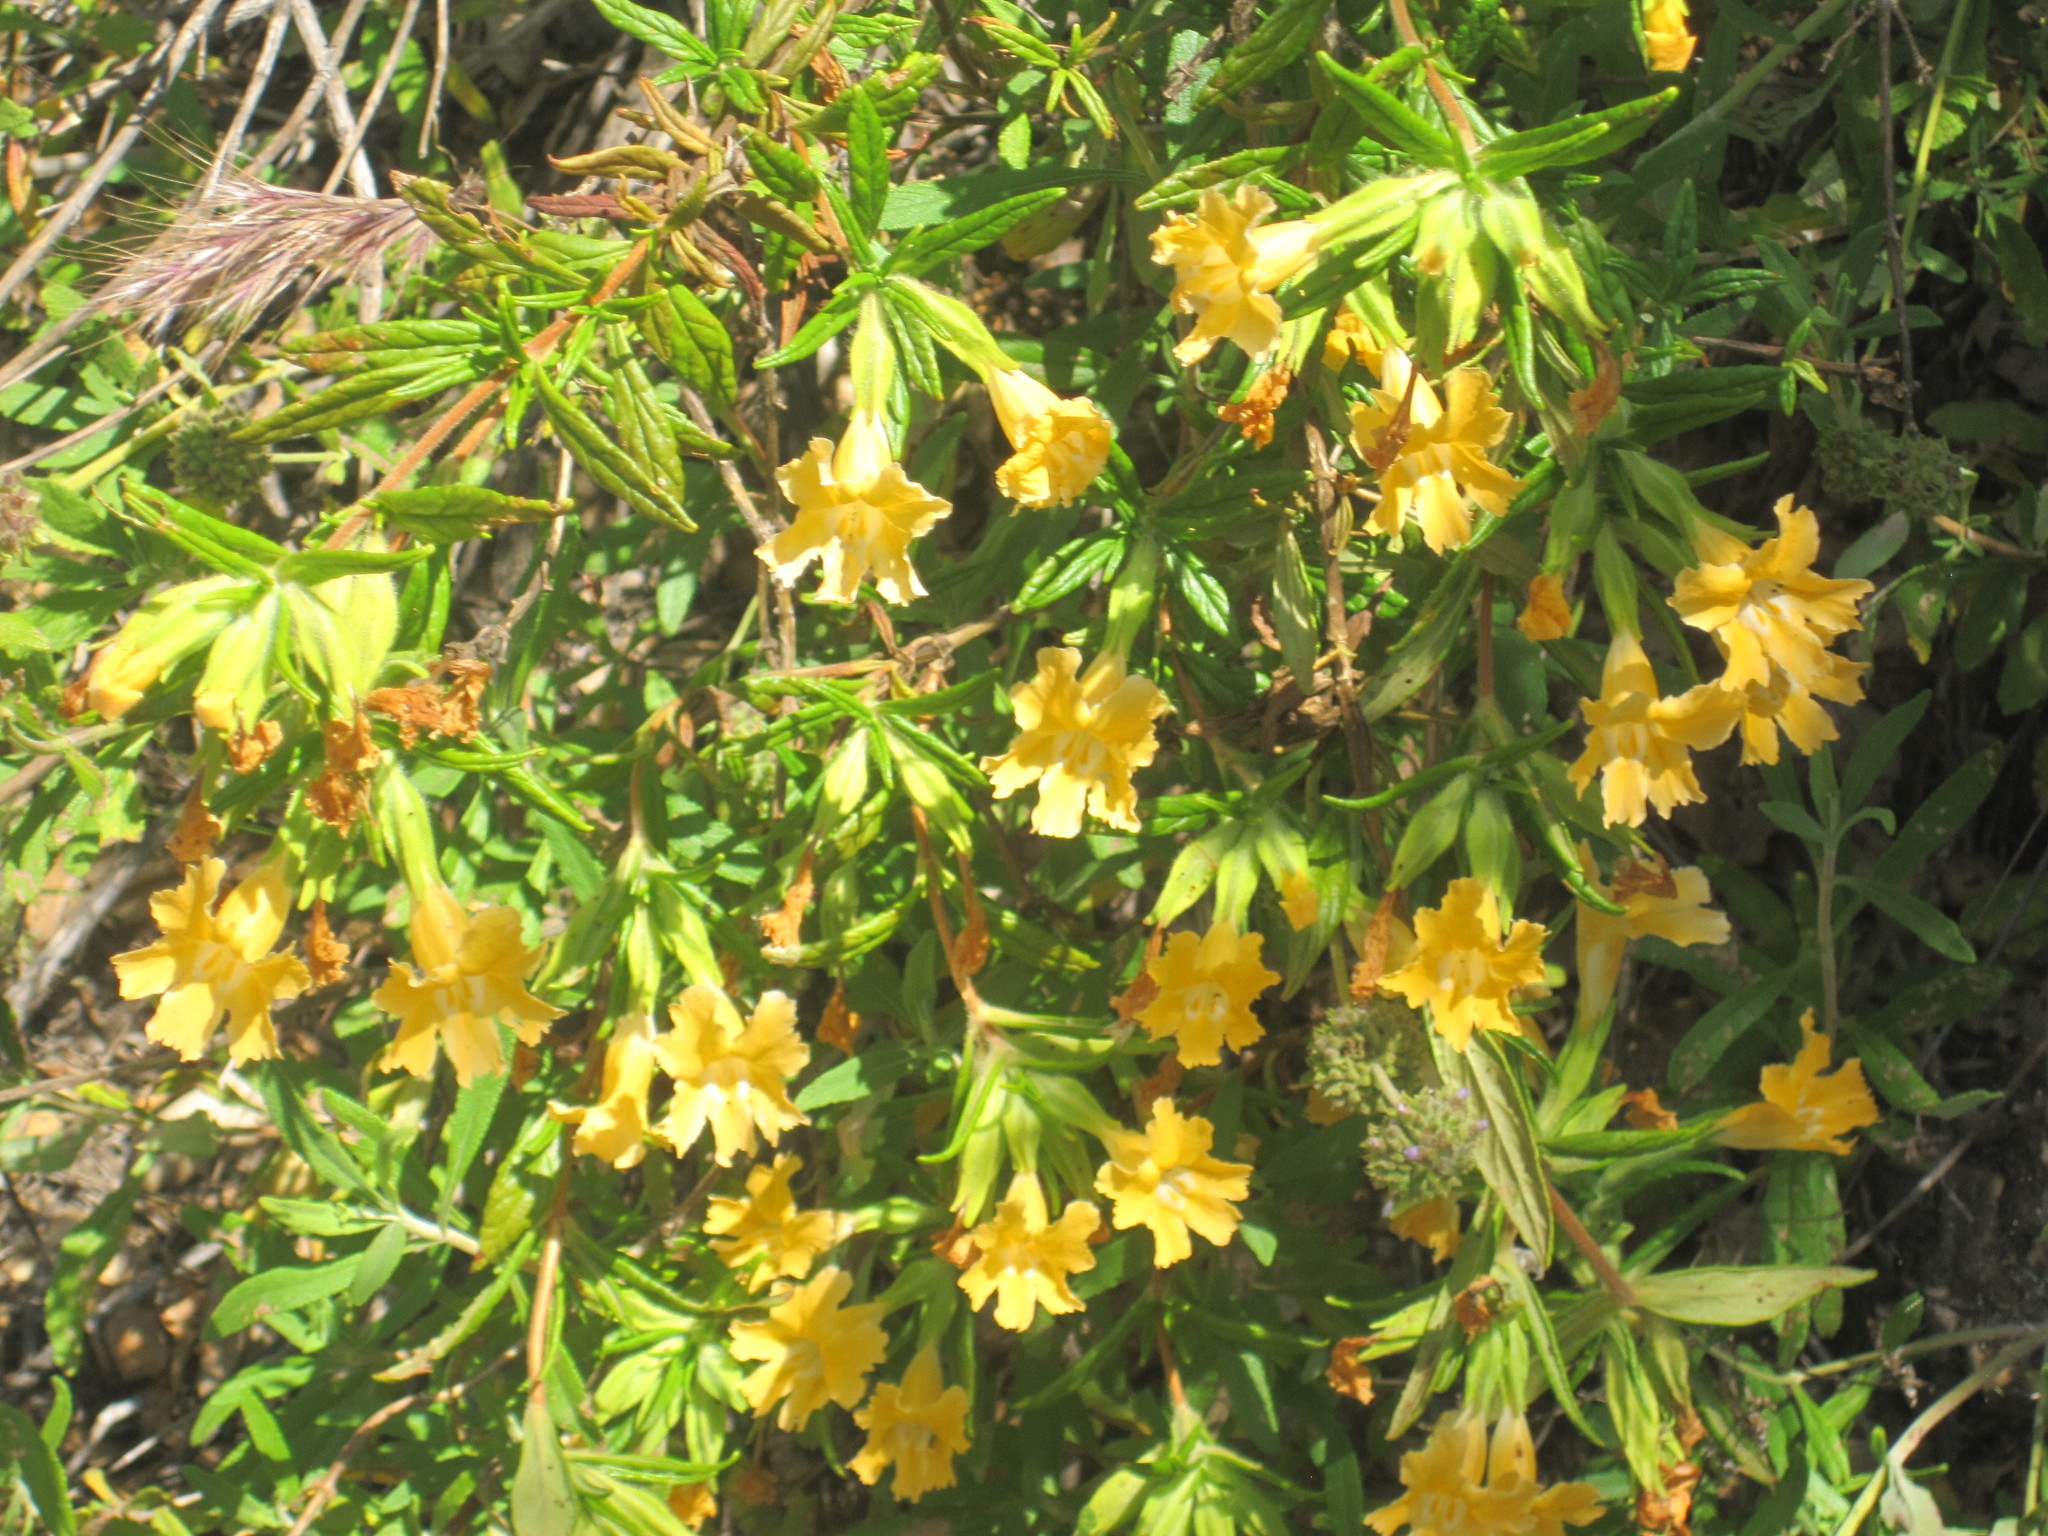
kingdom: Plantae
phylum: Tracheophyta
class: Magnoliopsida
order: Lamiales
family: Phrymaceae
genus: Diplacus
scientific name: Diplacus longiflorus
